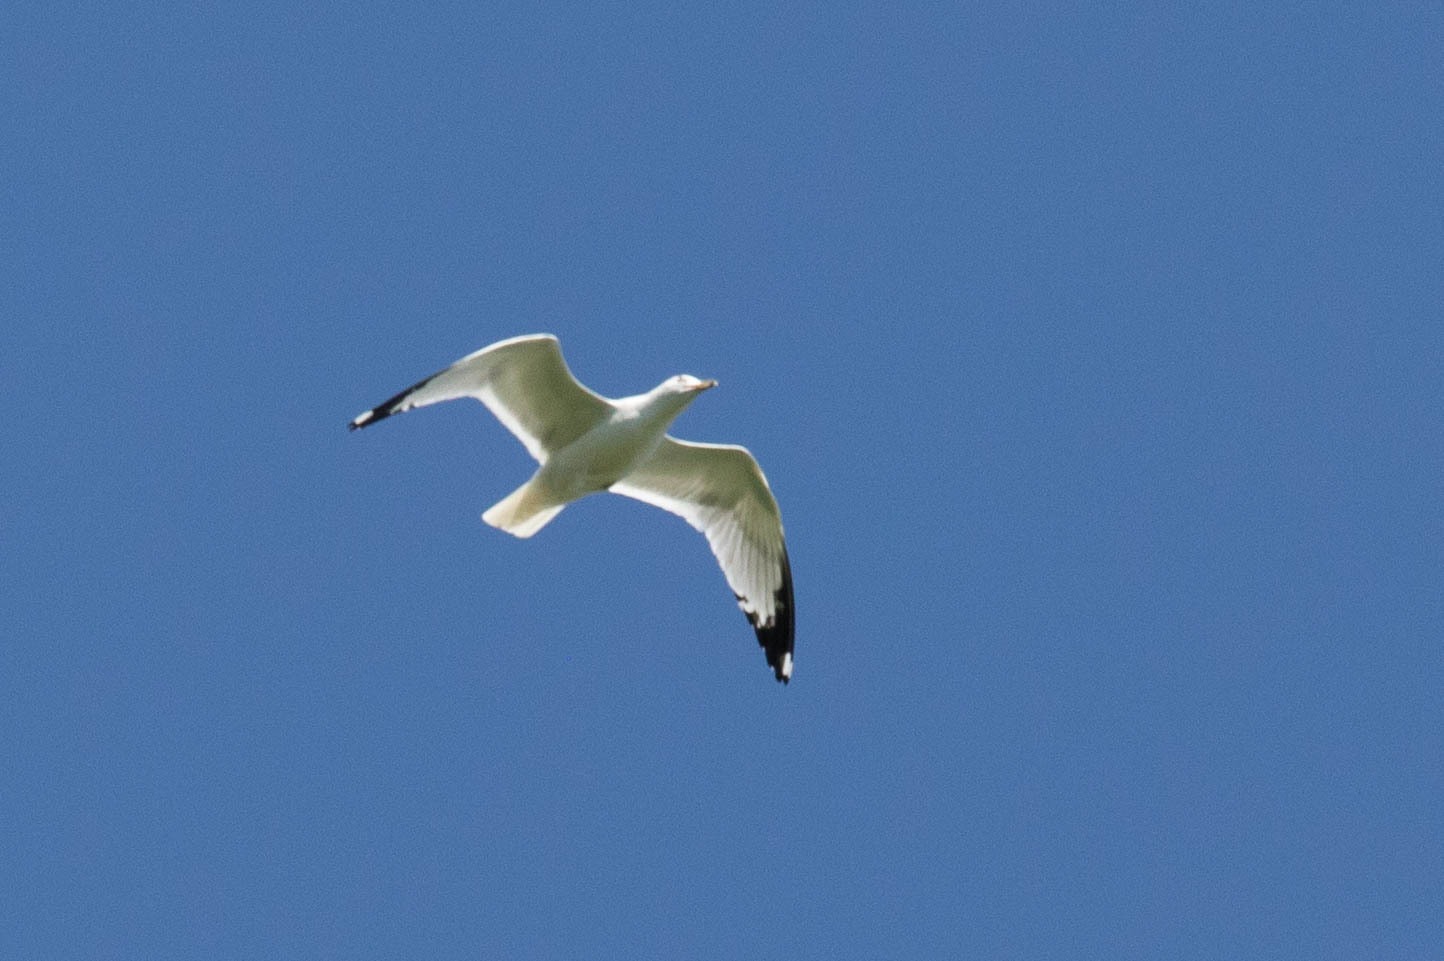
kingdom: Animalia
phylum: Chordata
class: Aves
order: Charadriiformes
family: Laridae
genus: Larus
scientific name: Larus delawarensis
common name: Ring-billed gull
